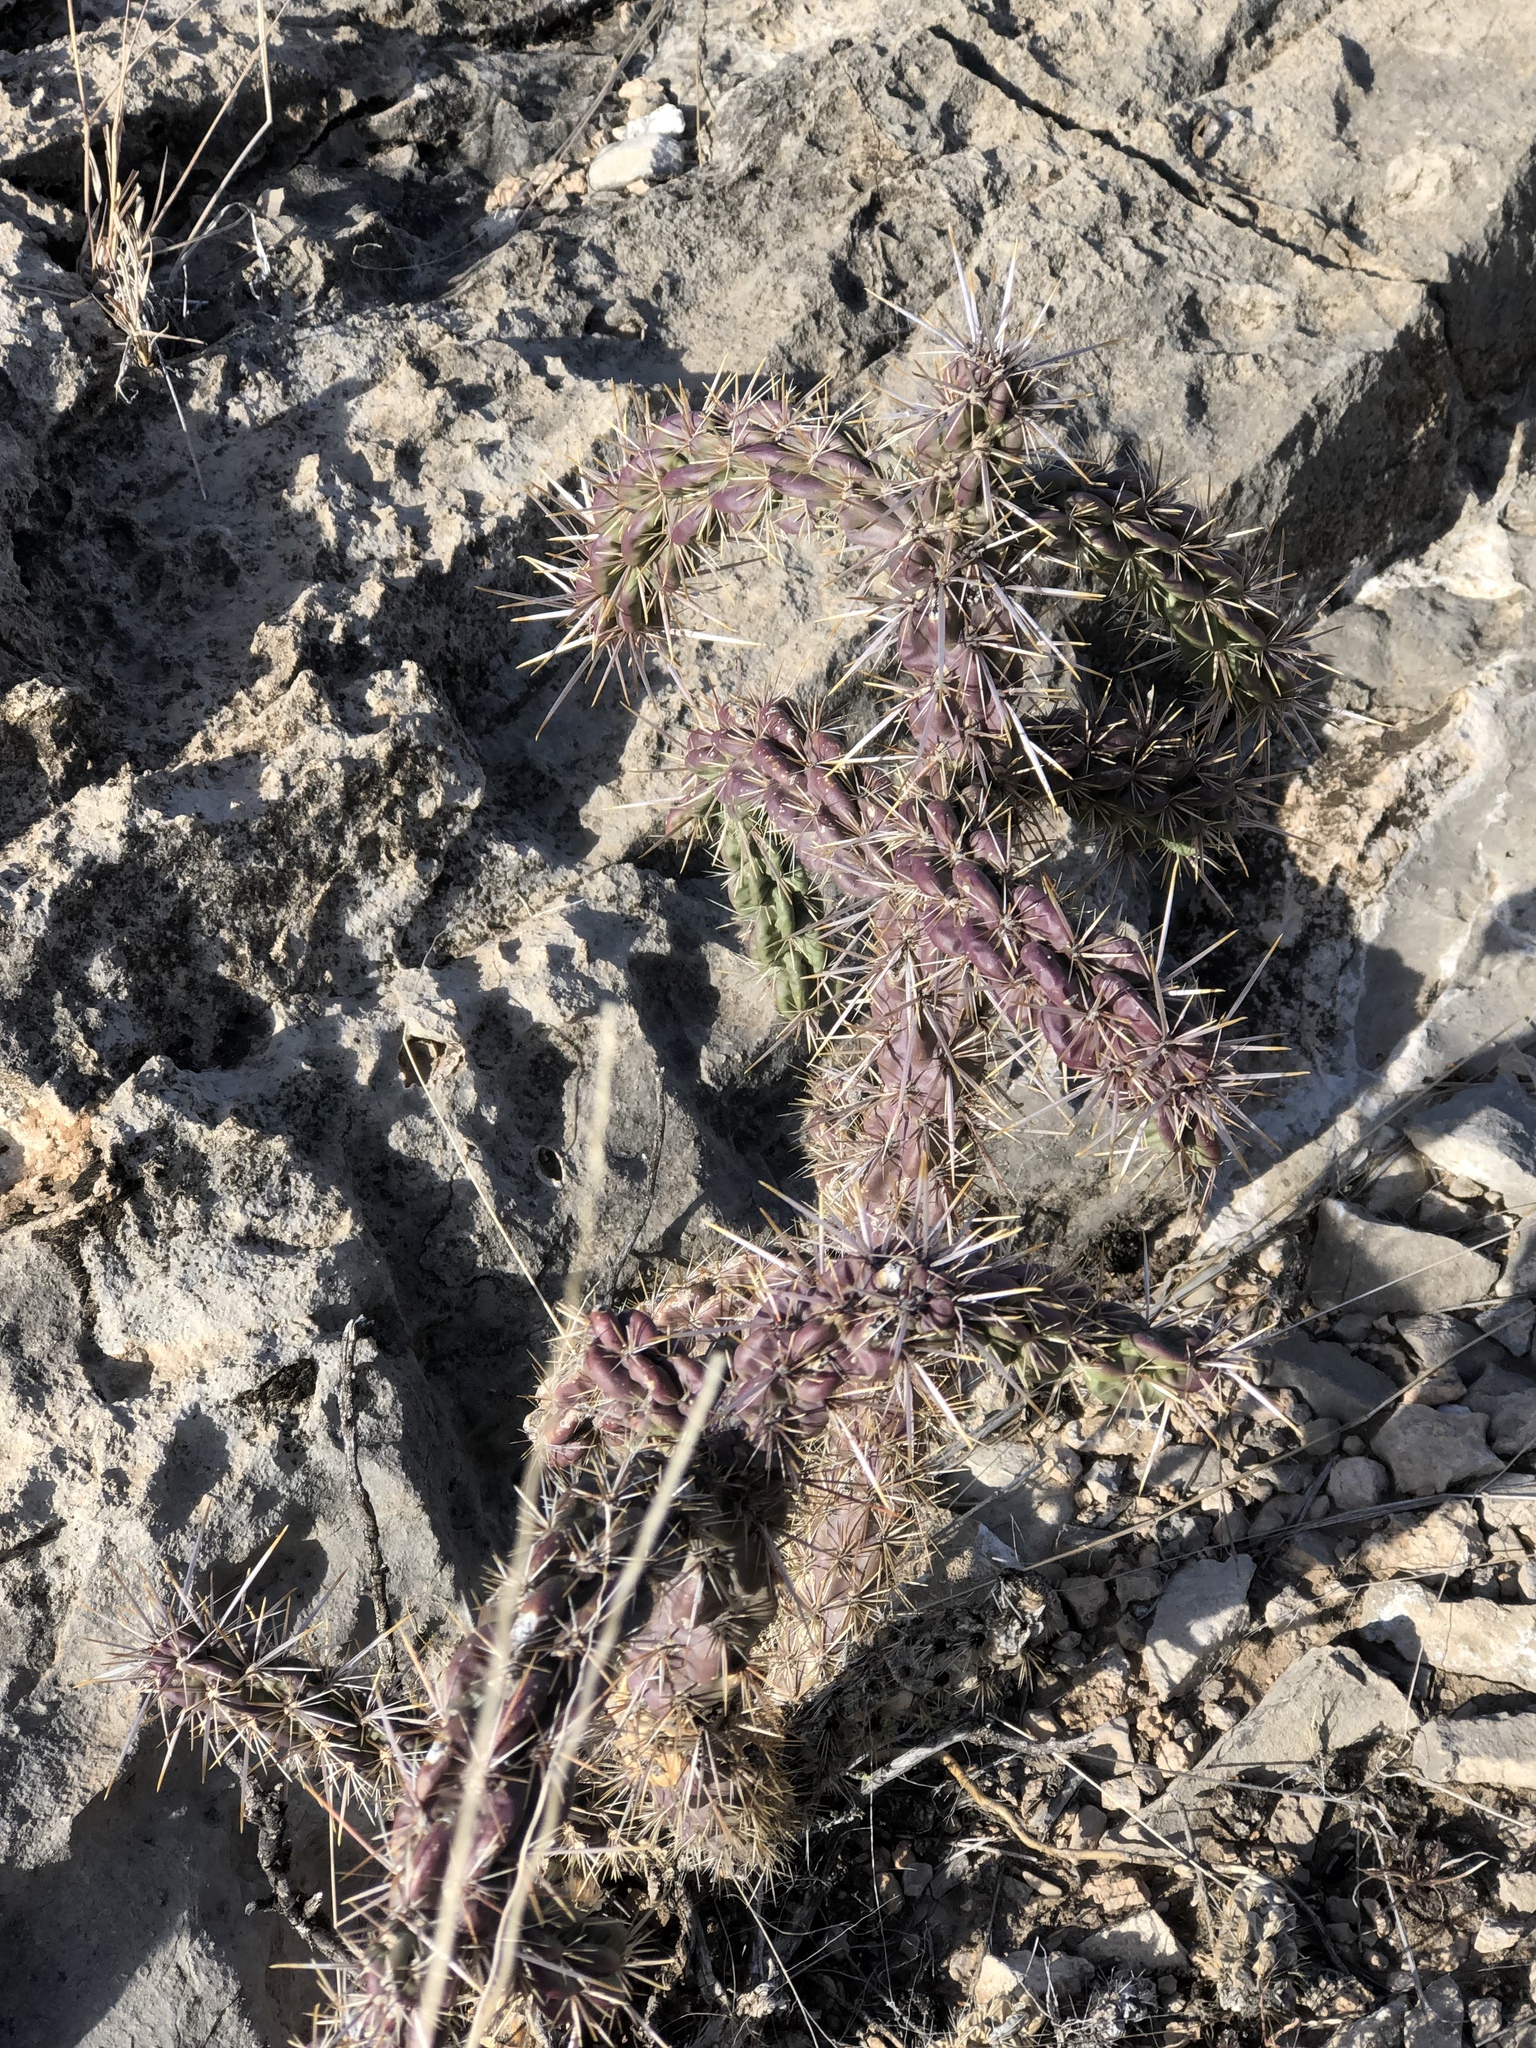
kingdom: Plantae
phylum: Tracheophyta
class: Magnoliopsida
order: Caryophyllales
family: Cactaceae
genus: Cylindropuntia
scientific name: Cylindropuntia imbricata
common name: Candelabrum cactus
